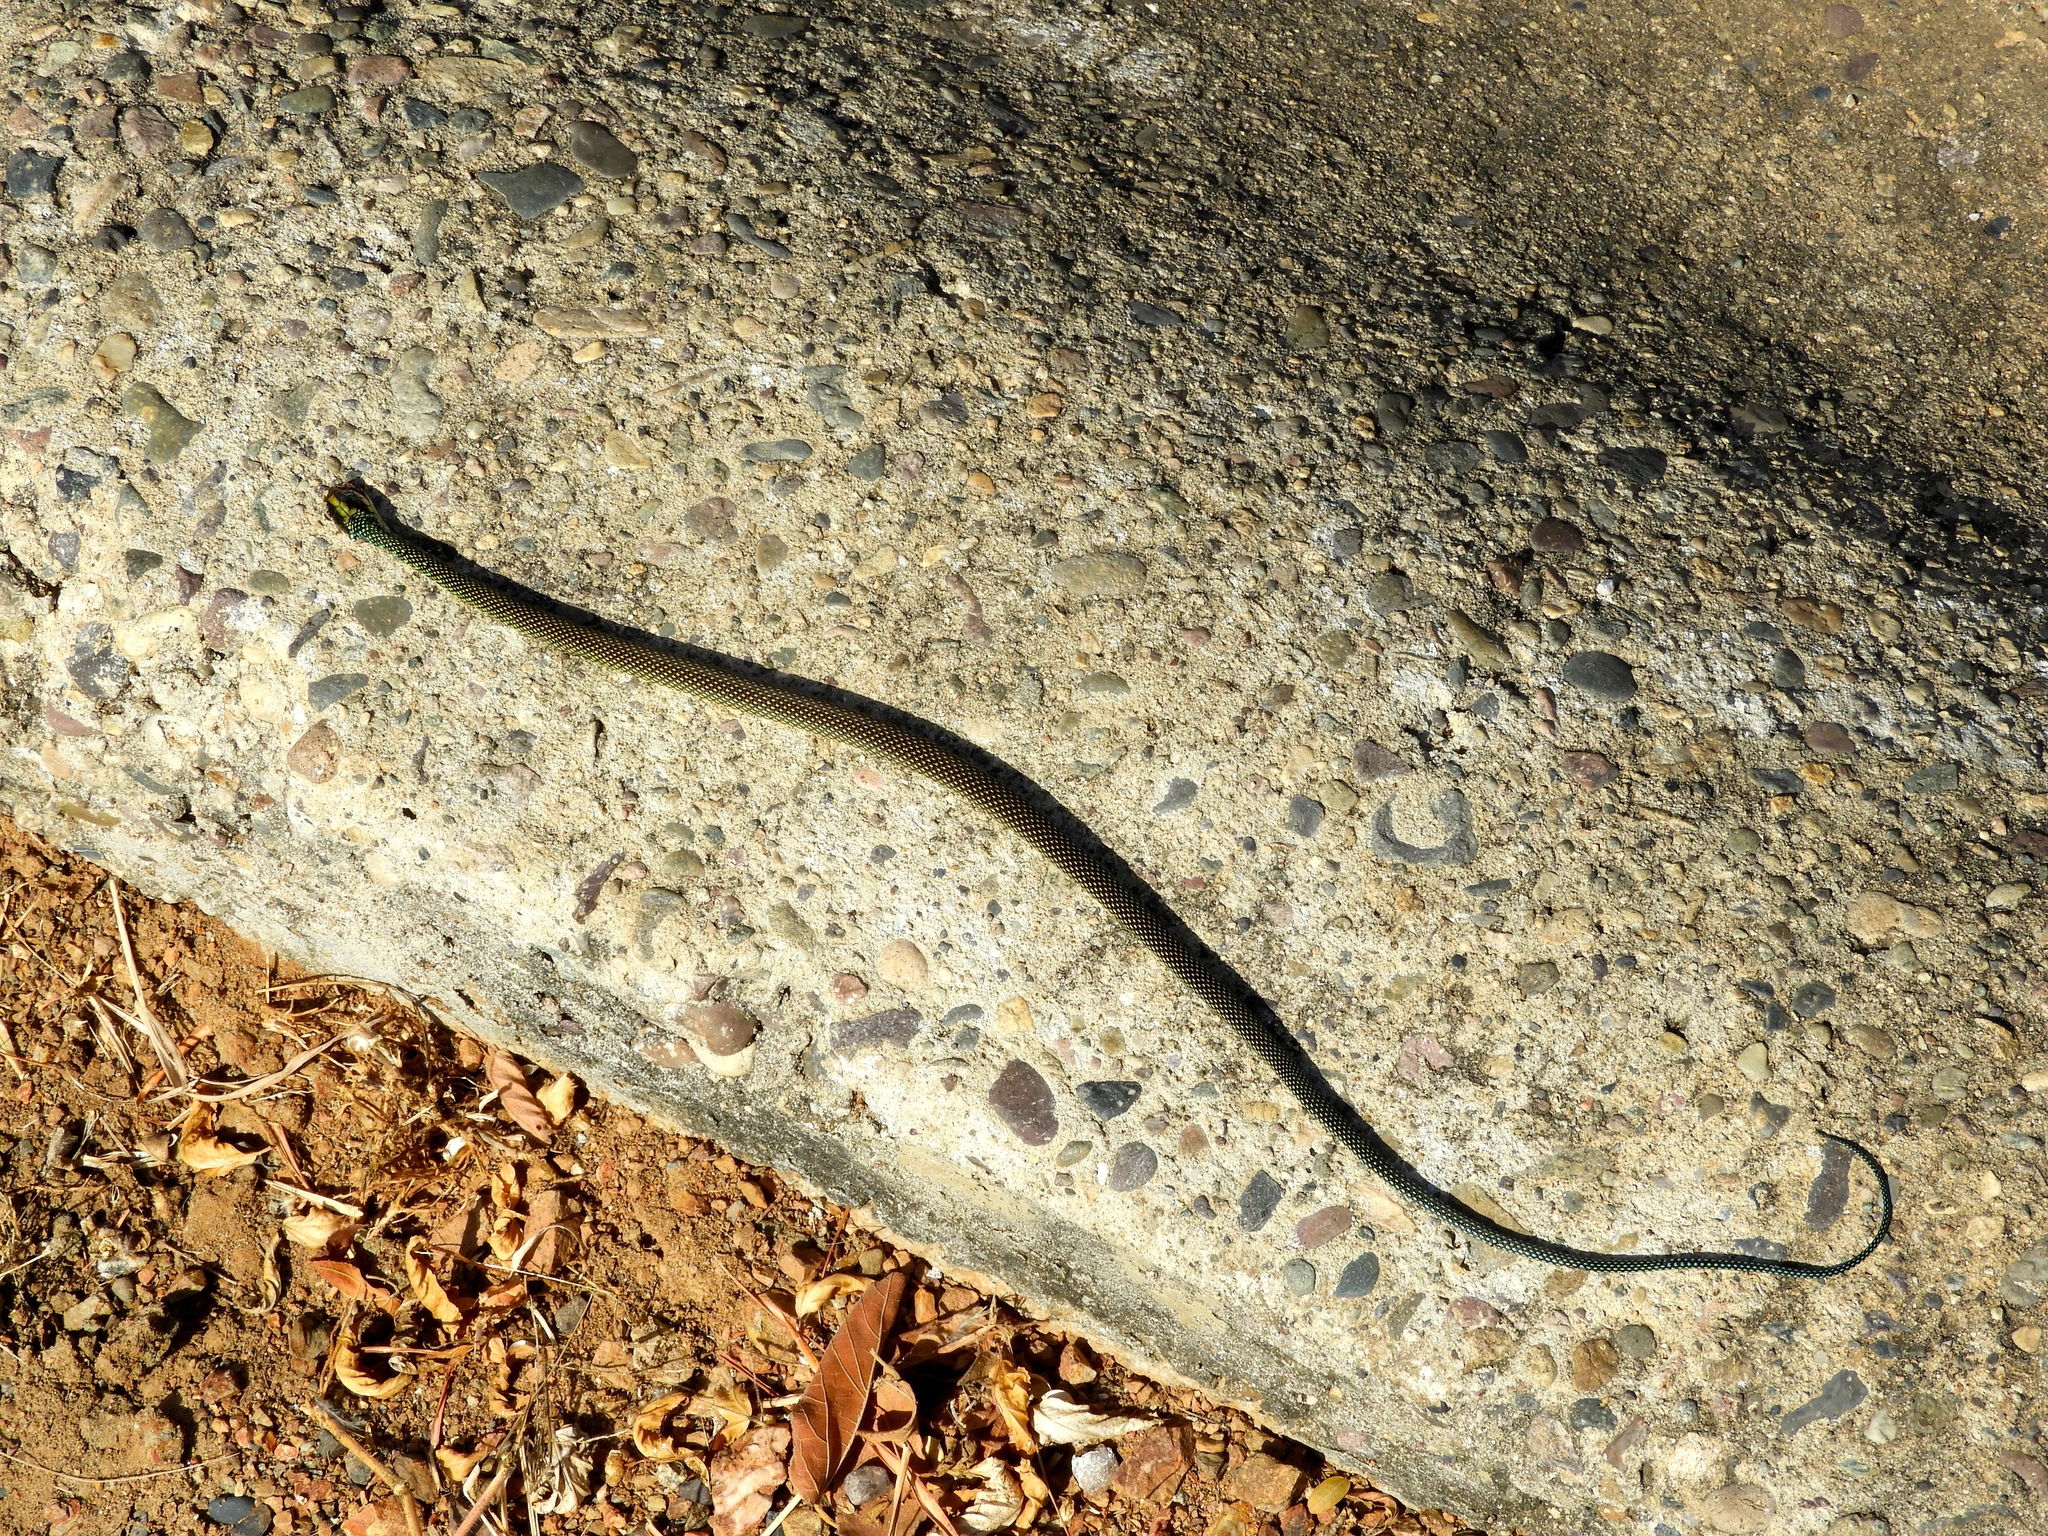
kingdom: Animalia
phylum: Chordata
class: Squamata
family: Colubridae
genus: Drymobius
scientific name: Drymobius margaritiferus
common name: Central american speckled racer
